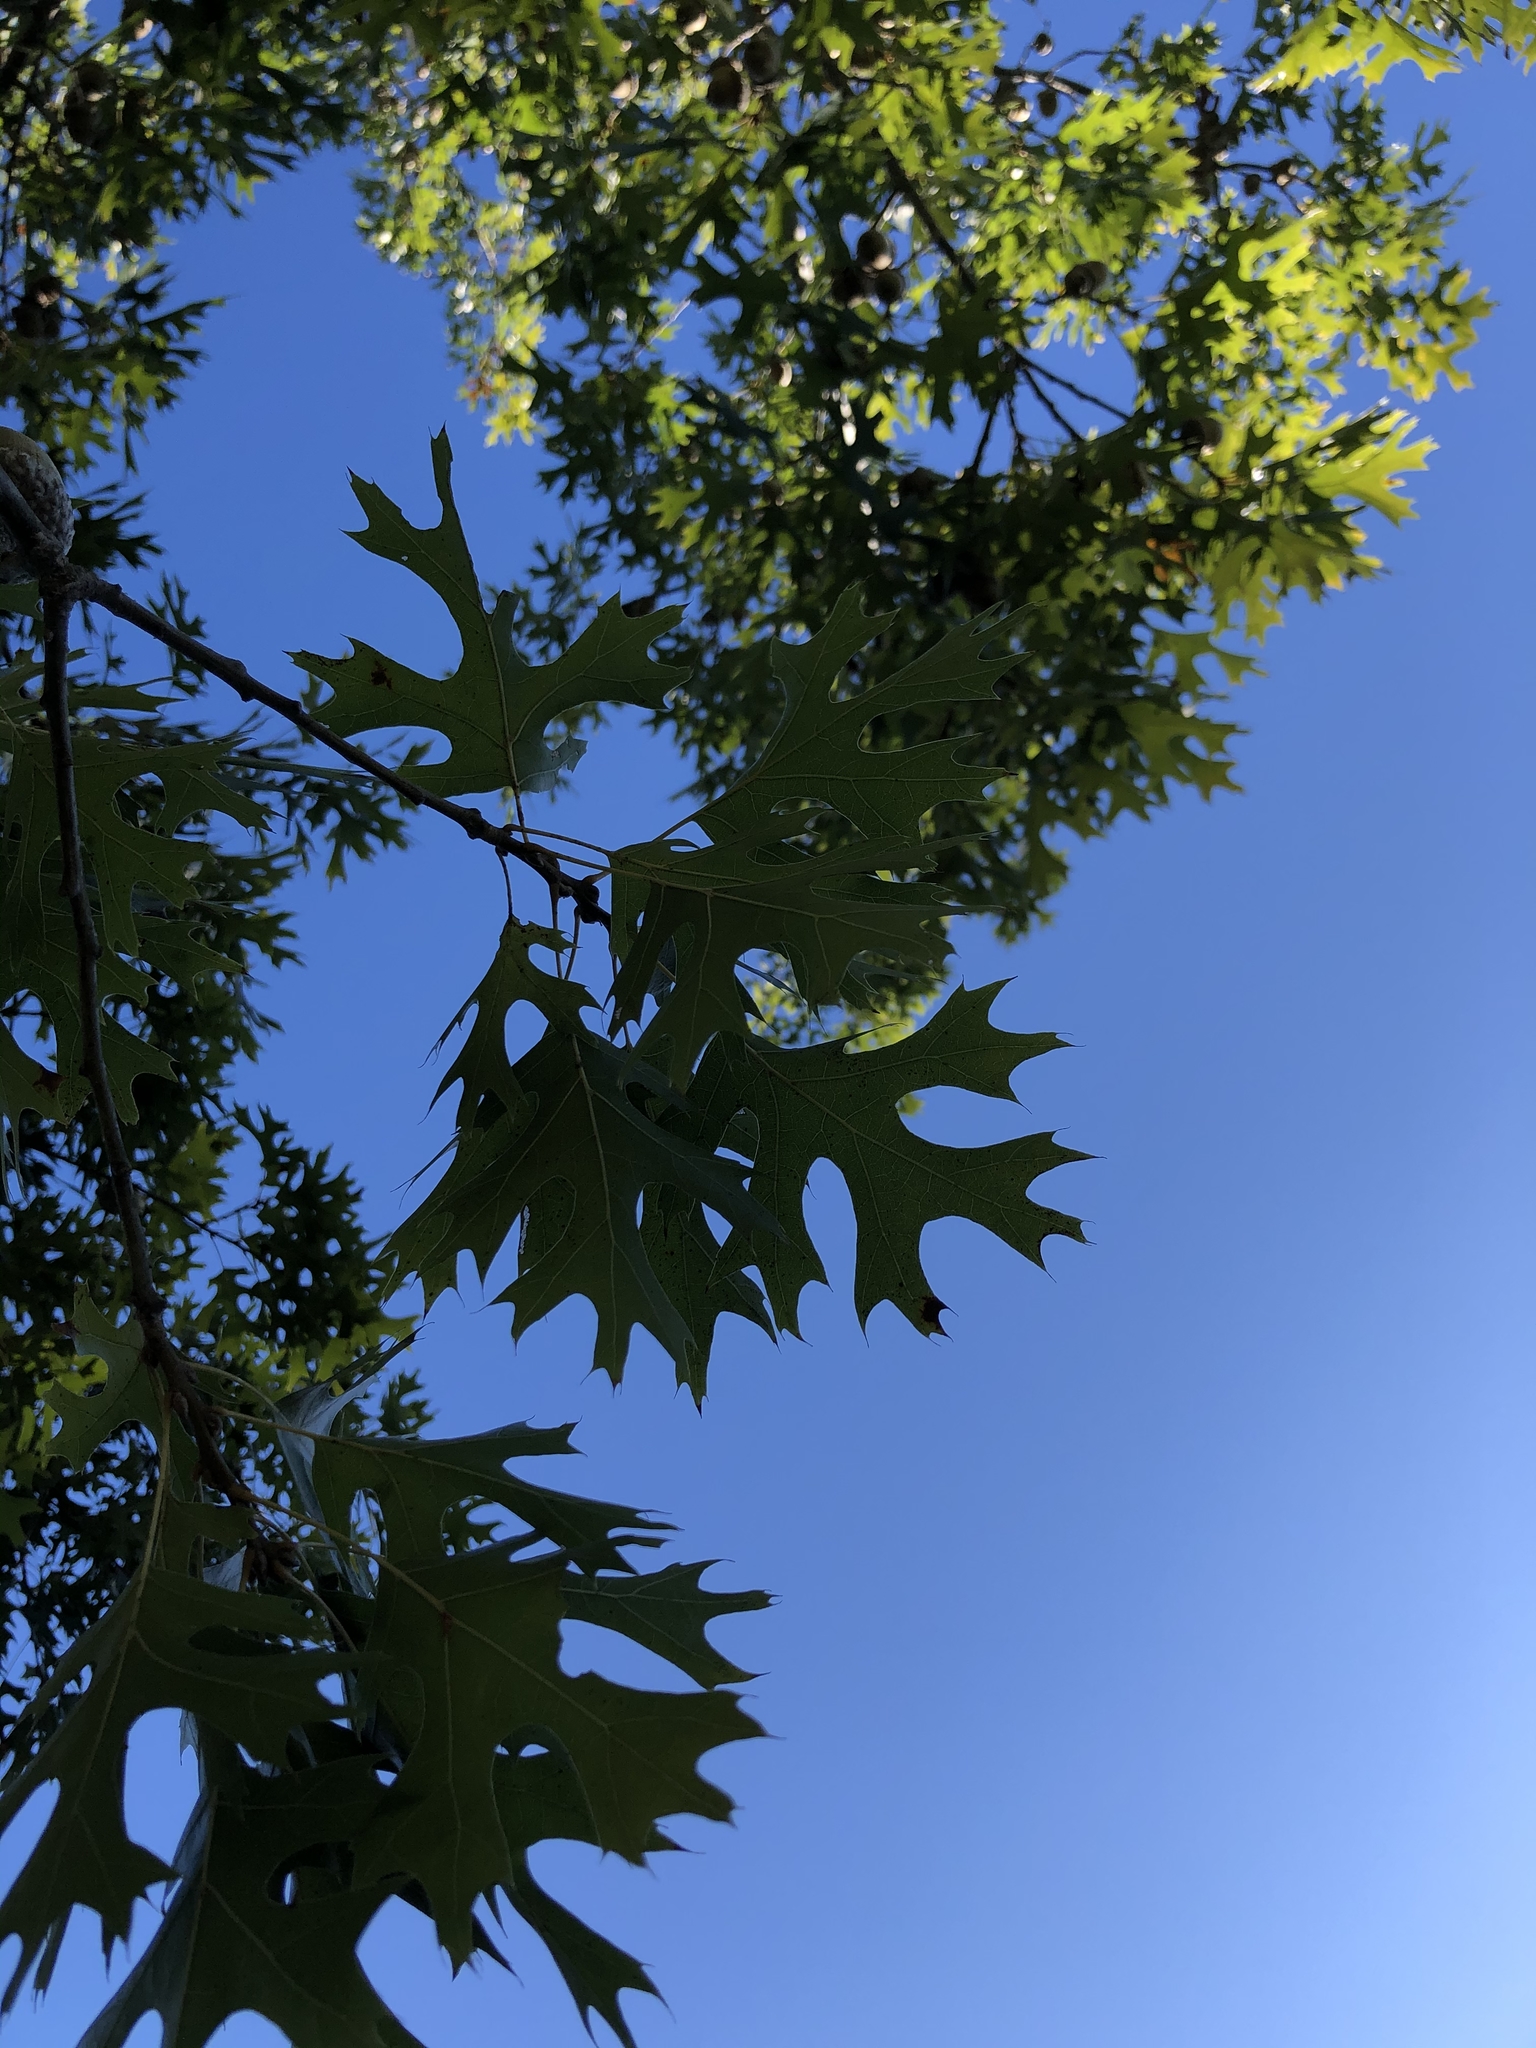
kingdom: Plantae
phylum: Tracheophyta
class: Magnoliopsida
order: Fagales
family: Fagaceae
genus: Quercus
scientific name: Quercus shumardii
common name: Shumard oak
